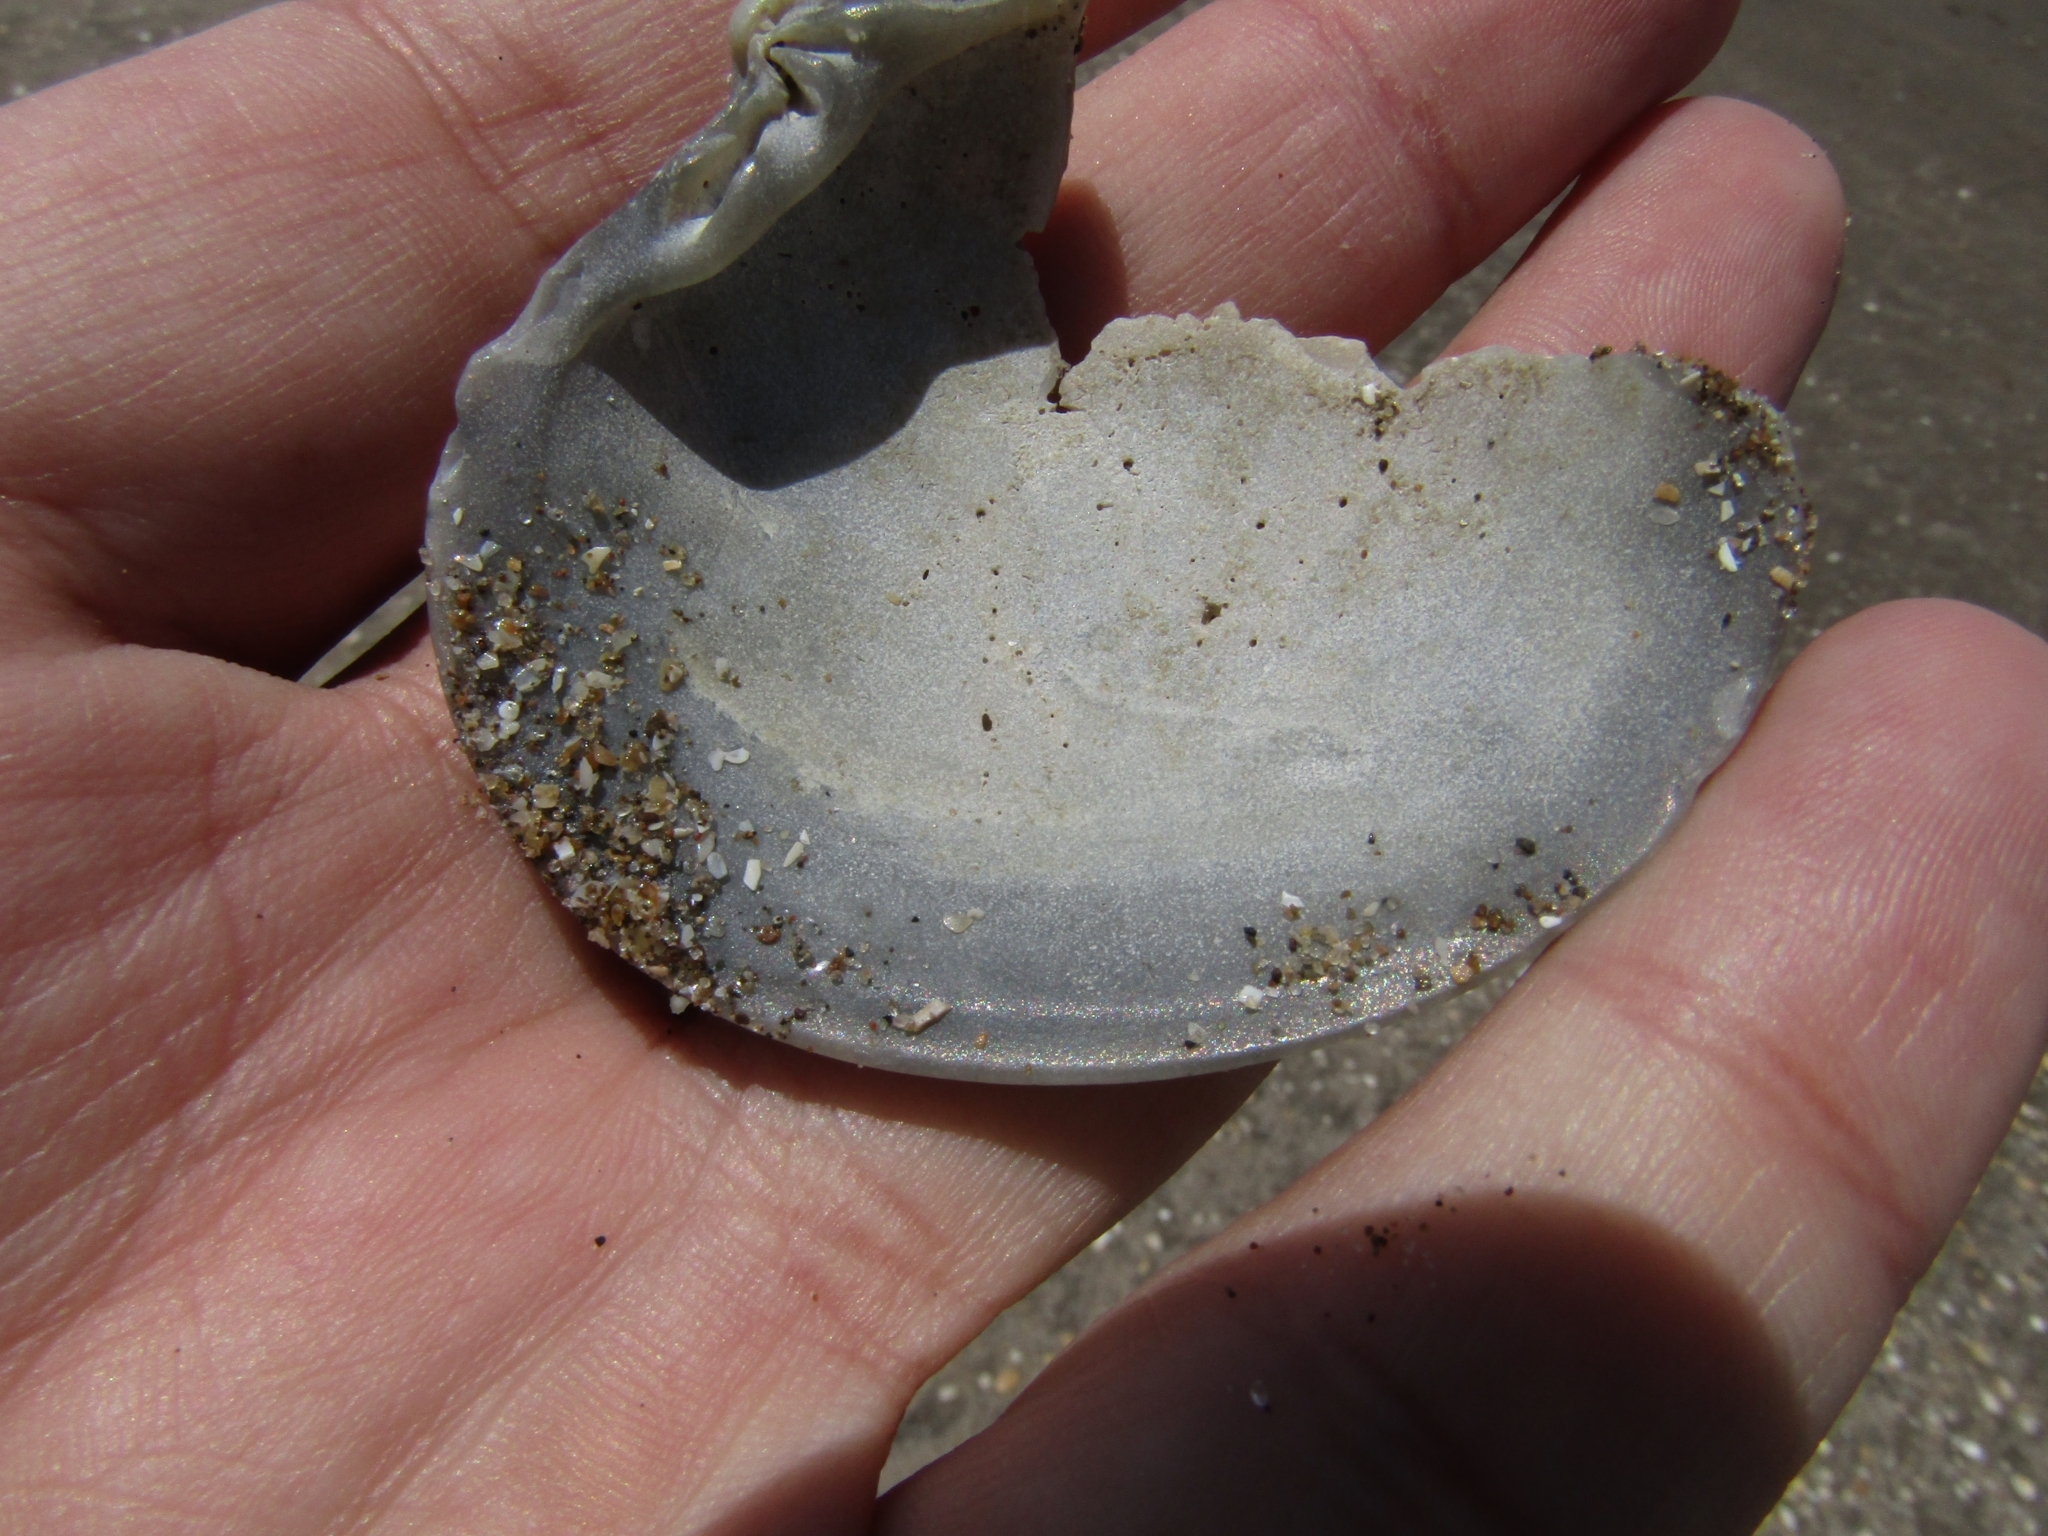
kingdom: Animalia
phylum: Mollusca
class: Bivalvia
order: Venerida
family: Veneridae
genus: Eucallista
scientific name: Eucallista purpurata
